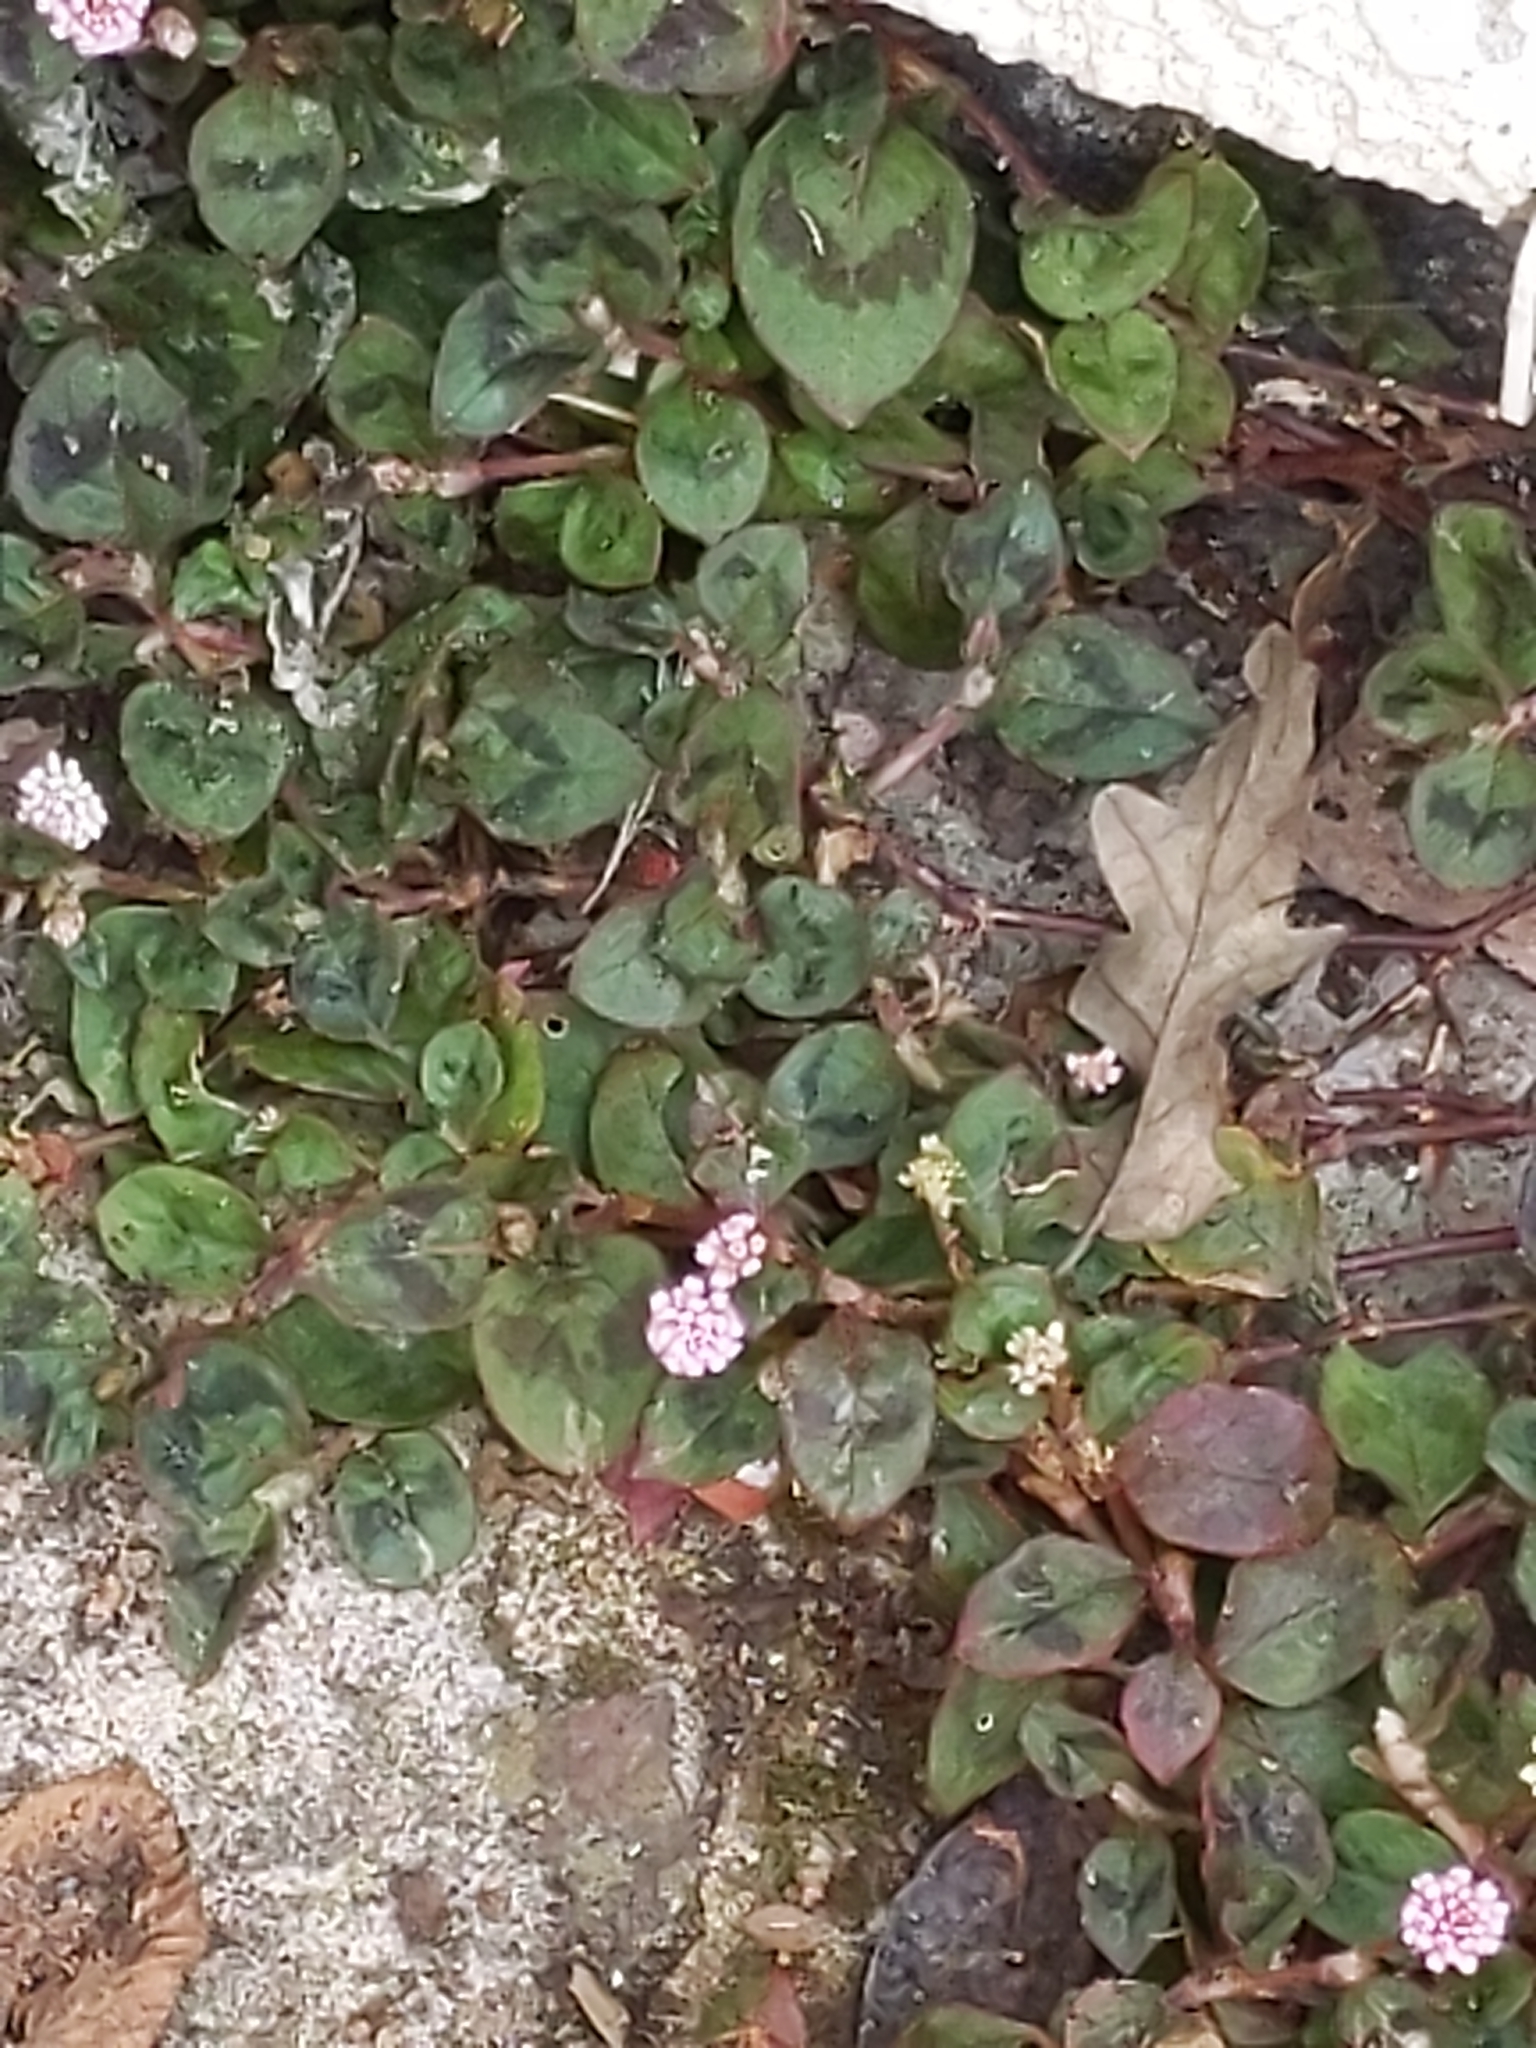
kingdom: Plantae
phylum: Tracheophyta
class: Magnoliopsida
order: Caryophyllales
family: Polygonaceae
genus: Persicaria
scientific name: Persicaria capitata
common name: Pinkhead smartweed
